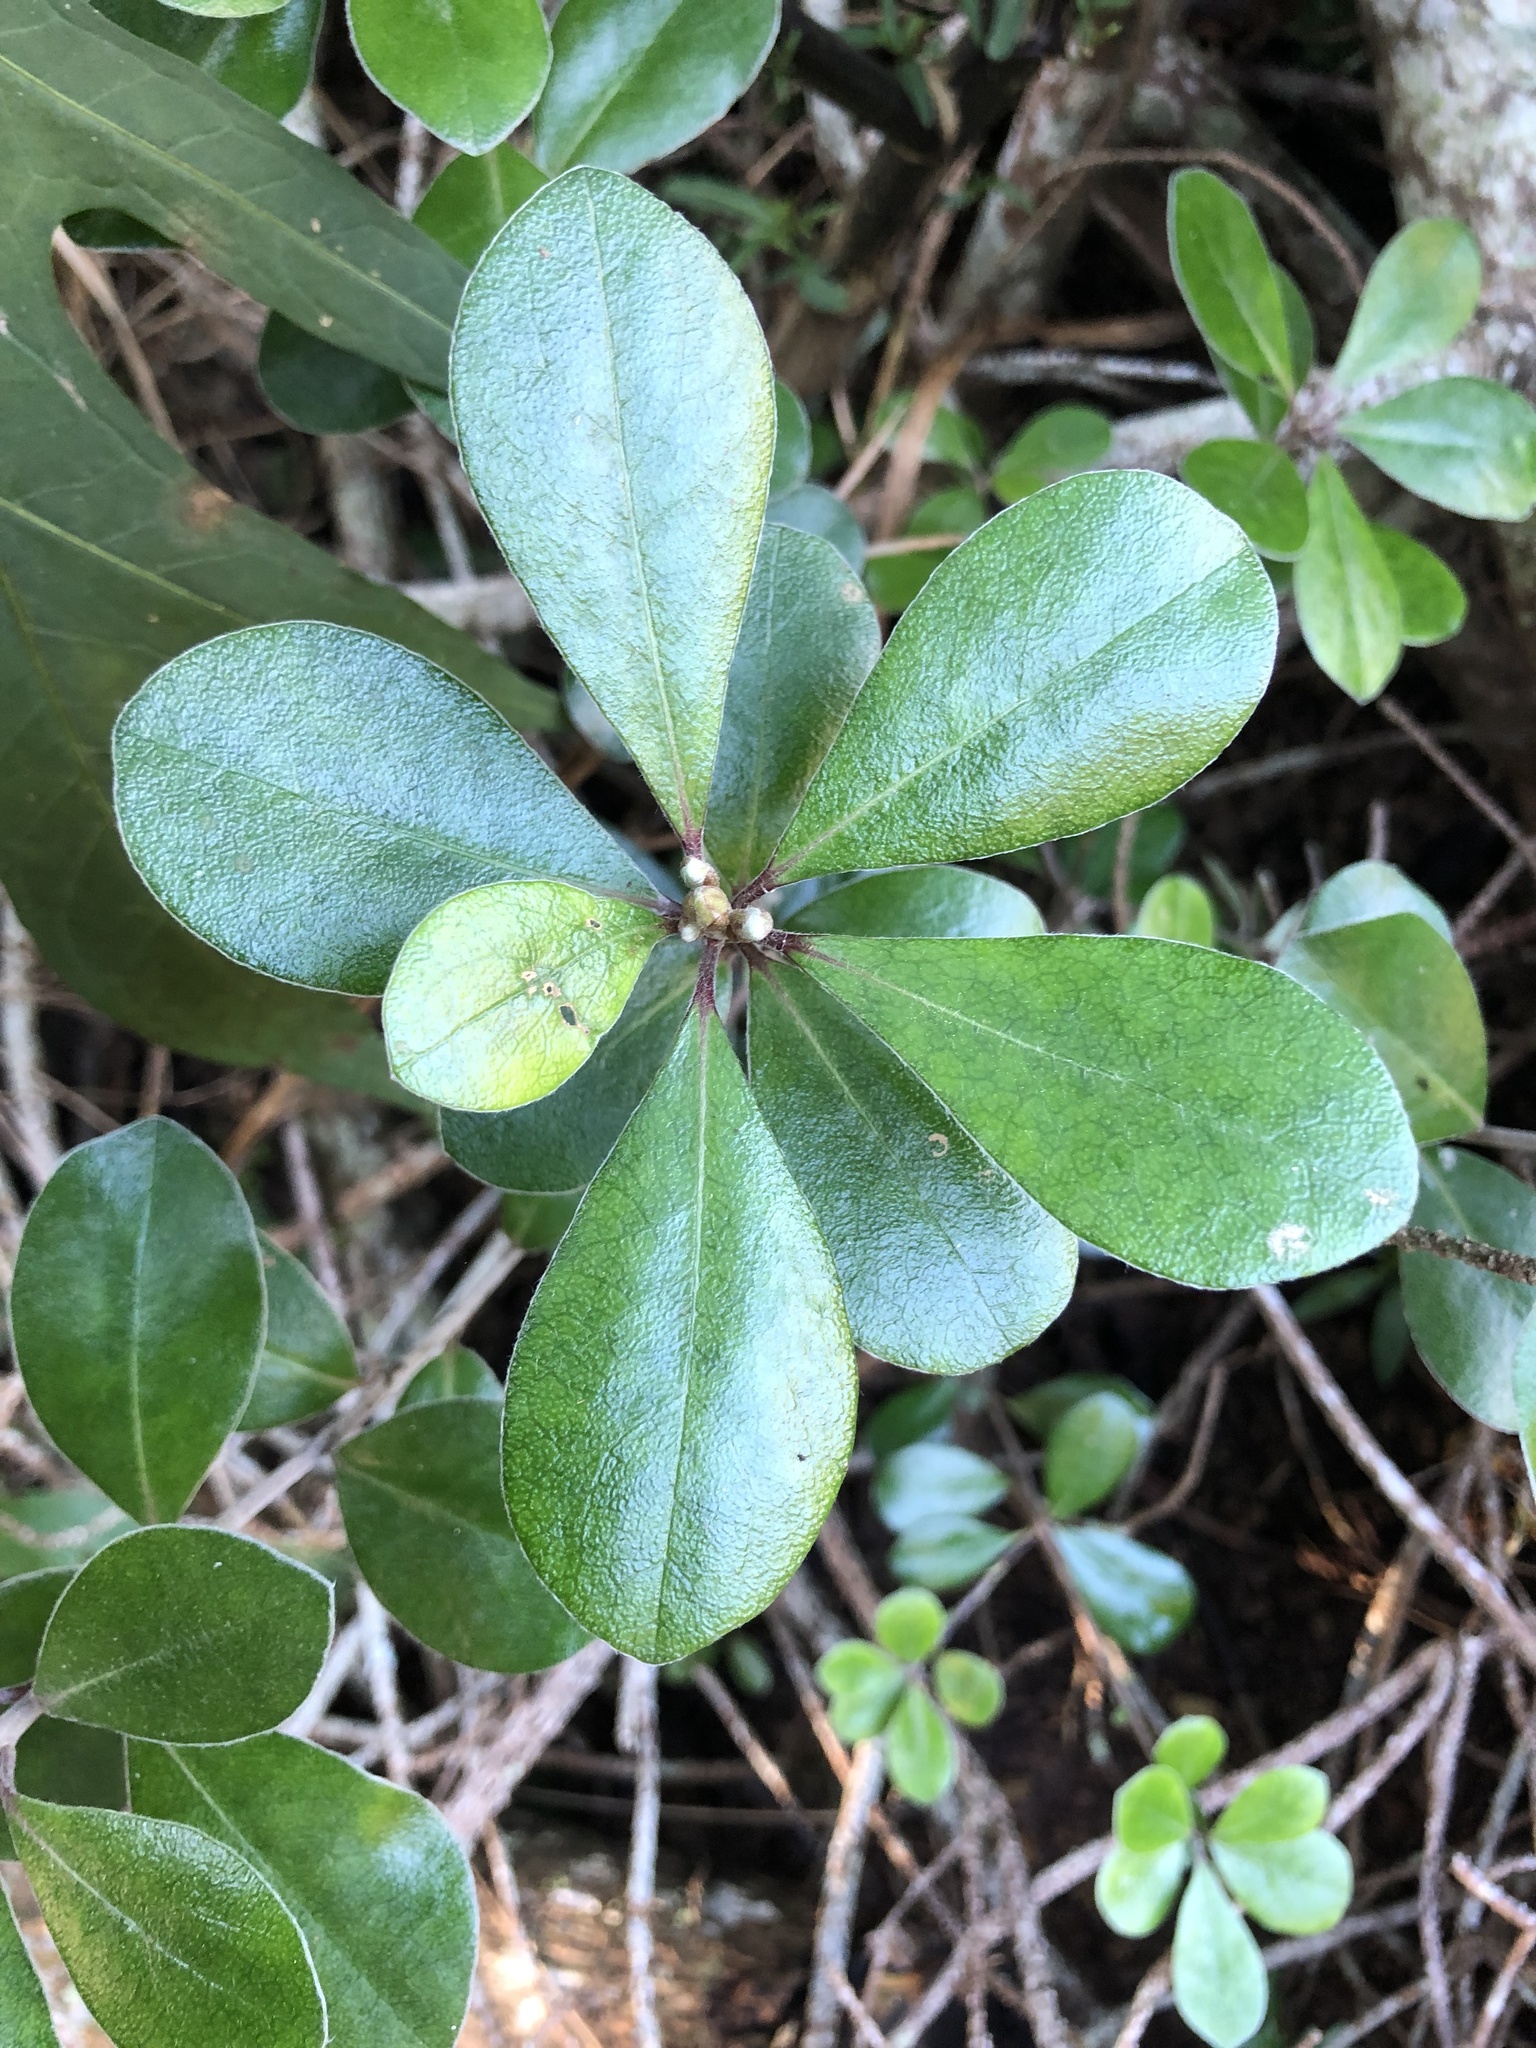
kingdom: Plantae
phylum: Tracheophyta
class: Magnoliopsida
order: Apiales
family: Pittosporaceae
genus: Pittosporum
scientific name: Pittosporum crassifolium
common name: Karo
